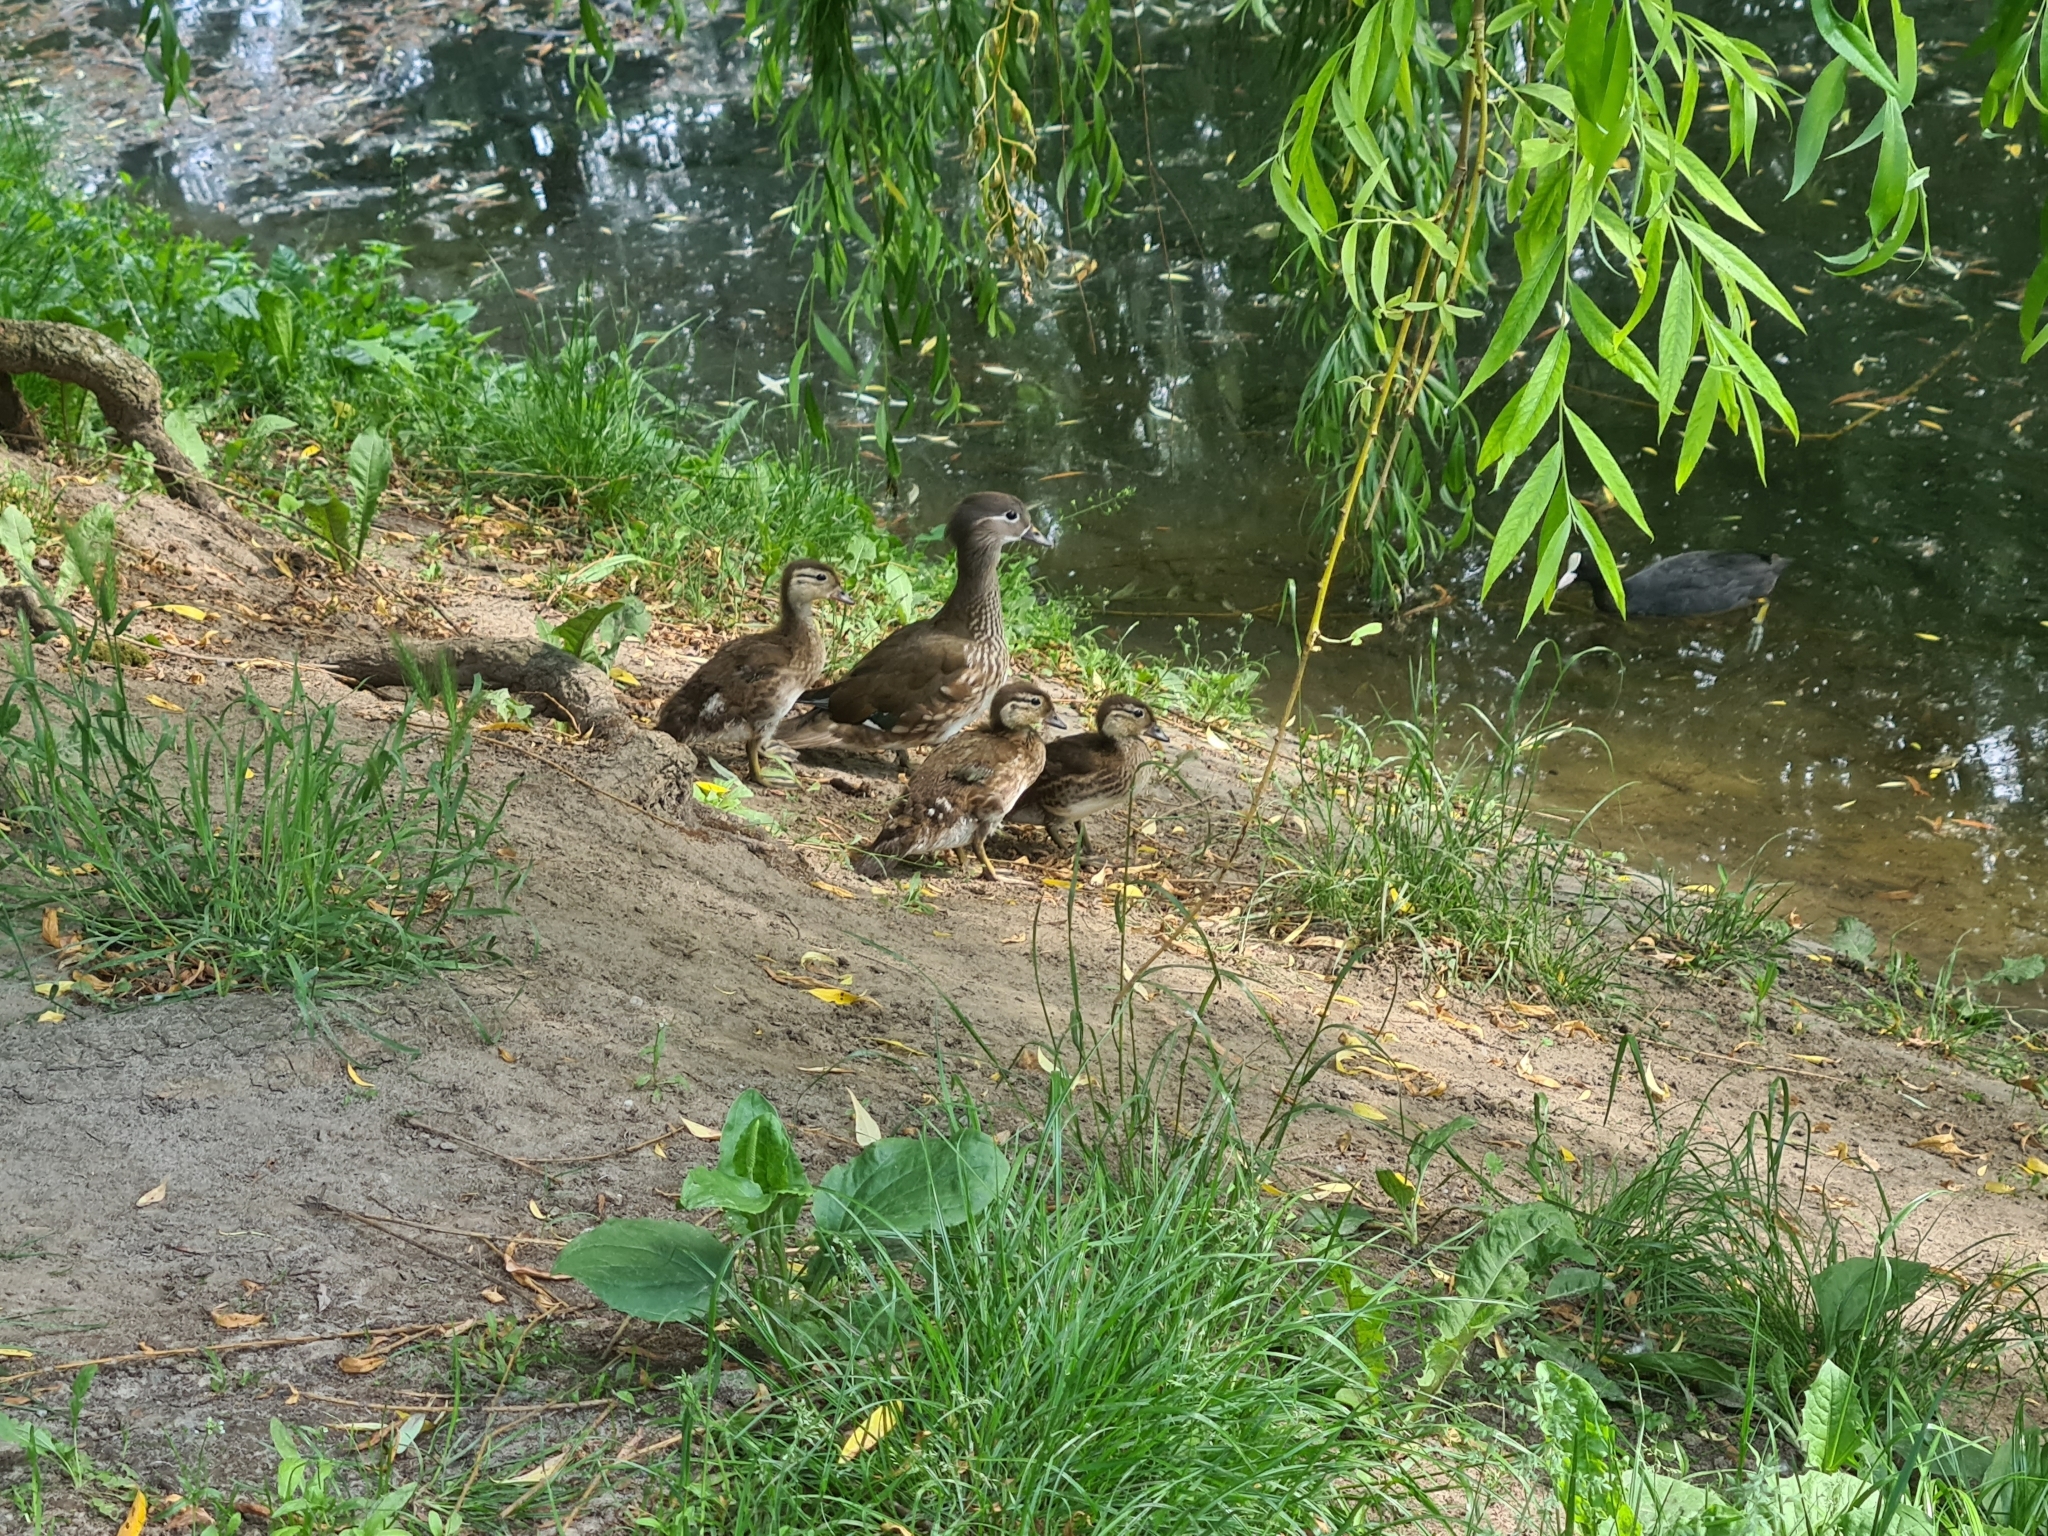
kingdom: Animalia
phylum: Chordata
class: Aves
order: Anseriformes
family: Anatidae
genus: Aix
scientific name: Aix galericulata
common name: Mandarin duck
